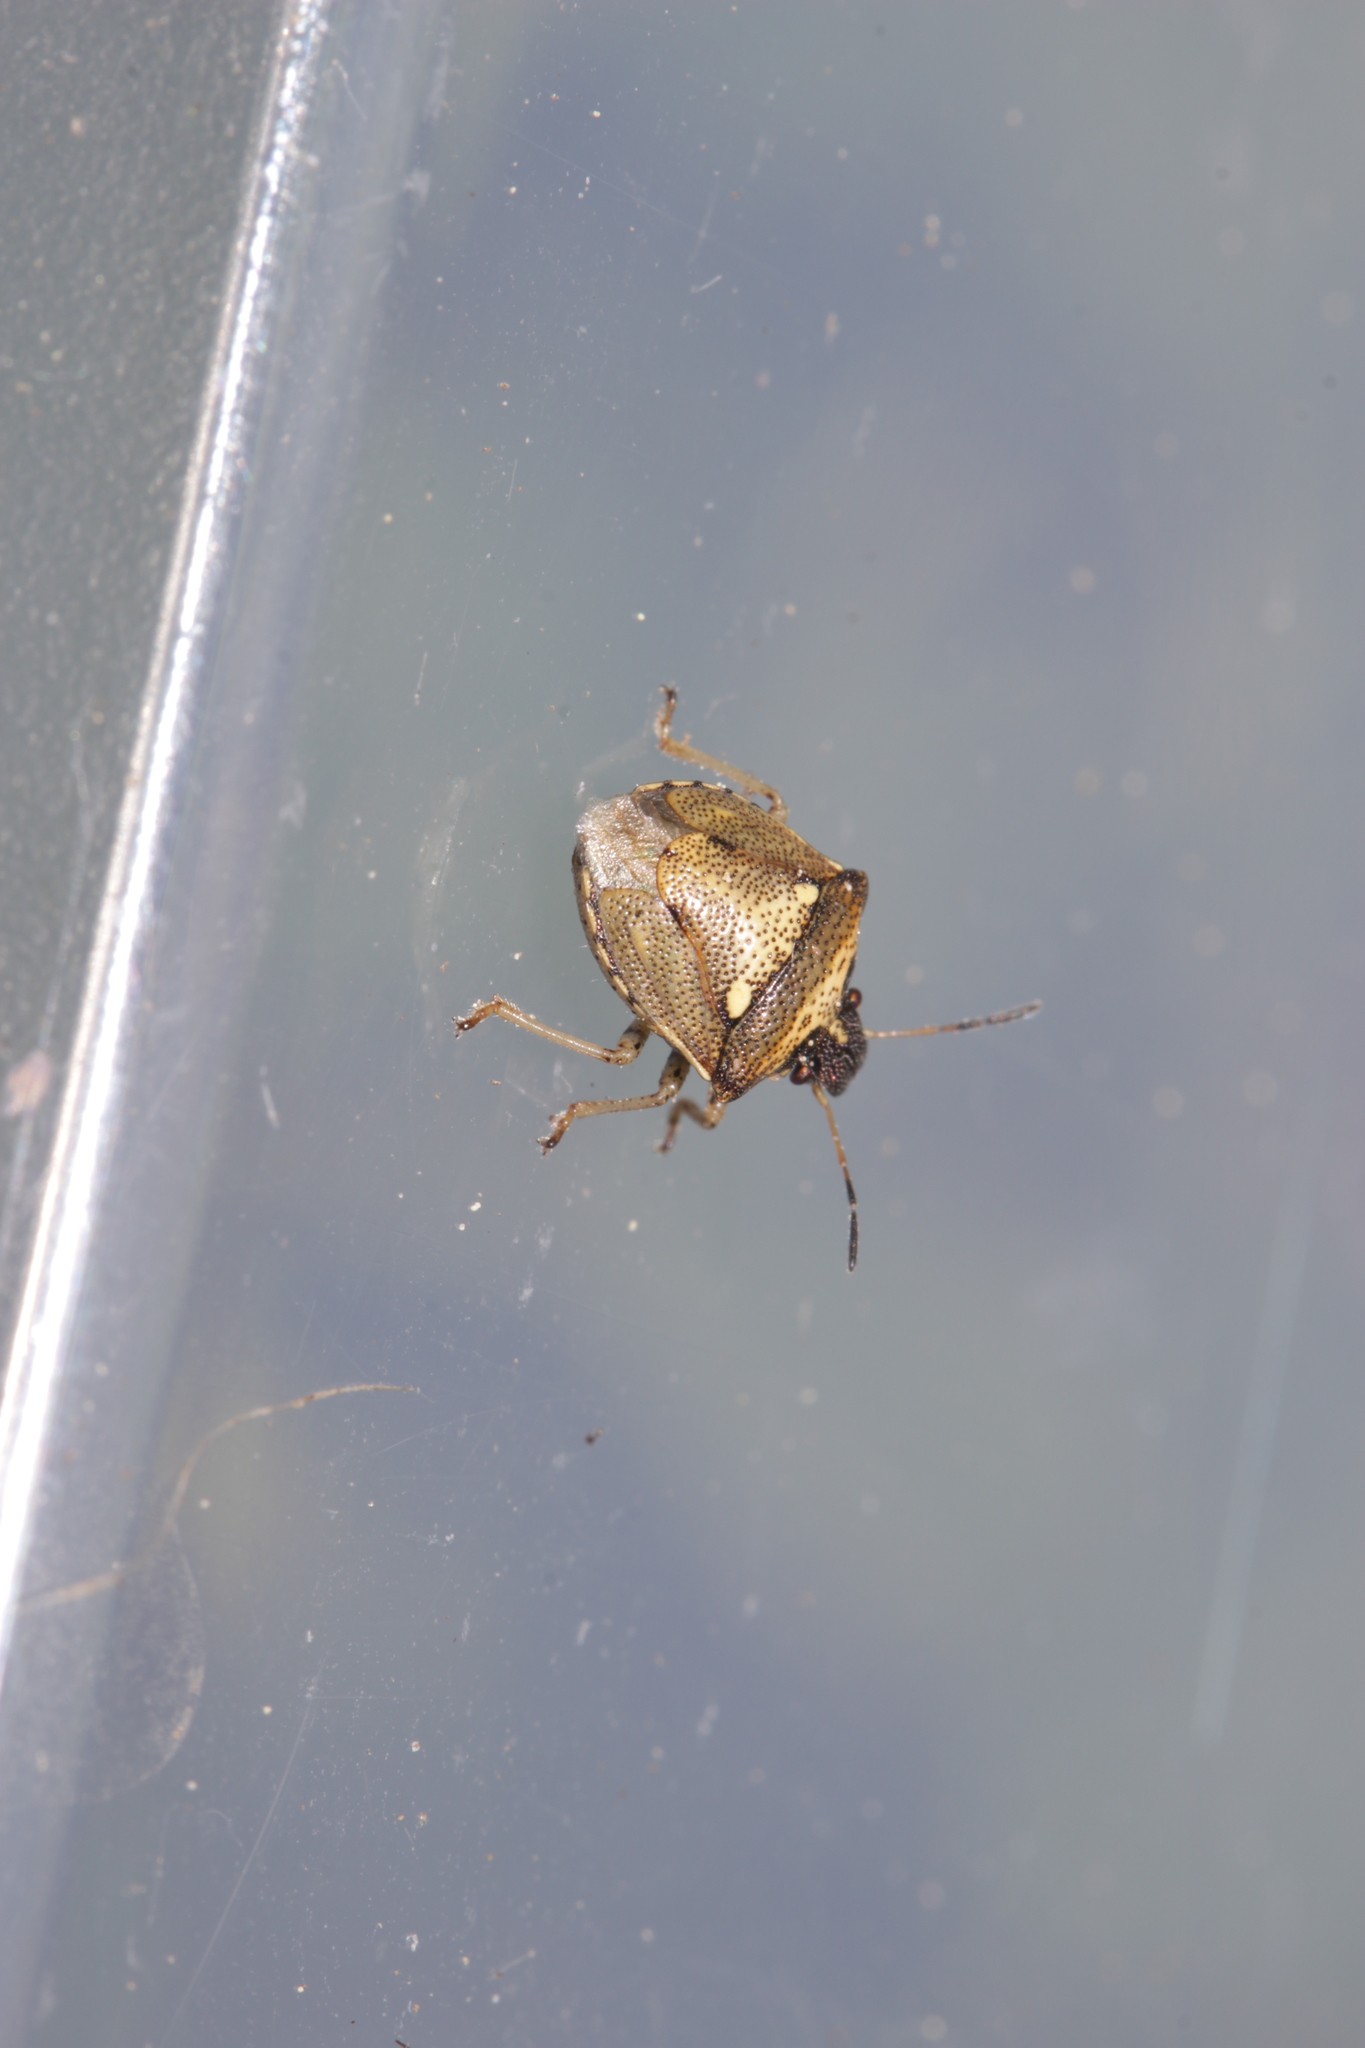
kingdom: Animalia
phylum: Arthropoda
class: Insecta
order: Hemiptera
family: Pentatomidae
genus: Eysarcoris
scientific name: Eysarcoris aeneus
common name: New forest shieldbug
